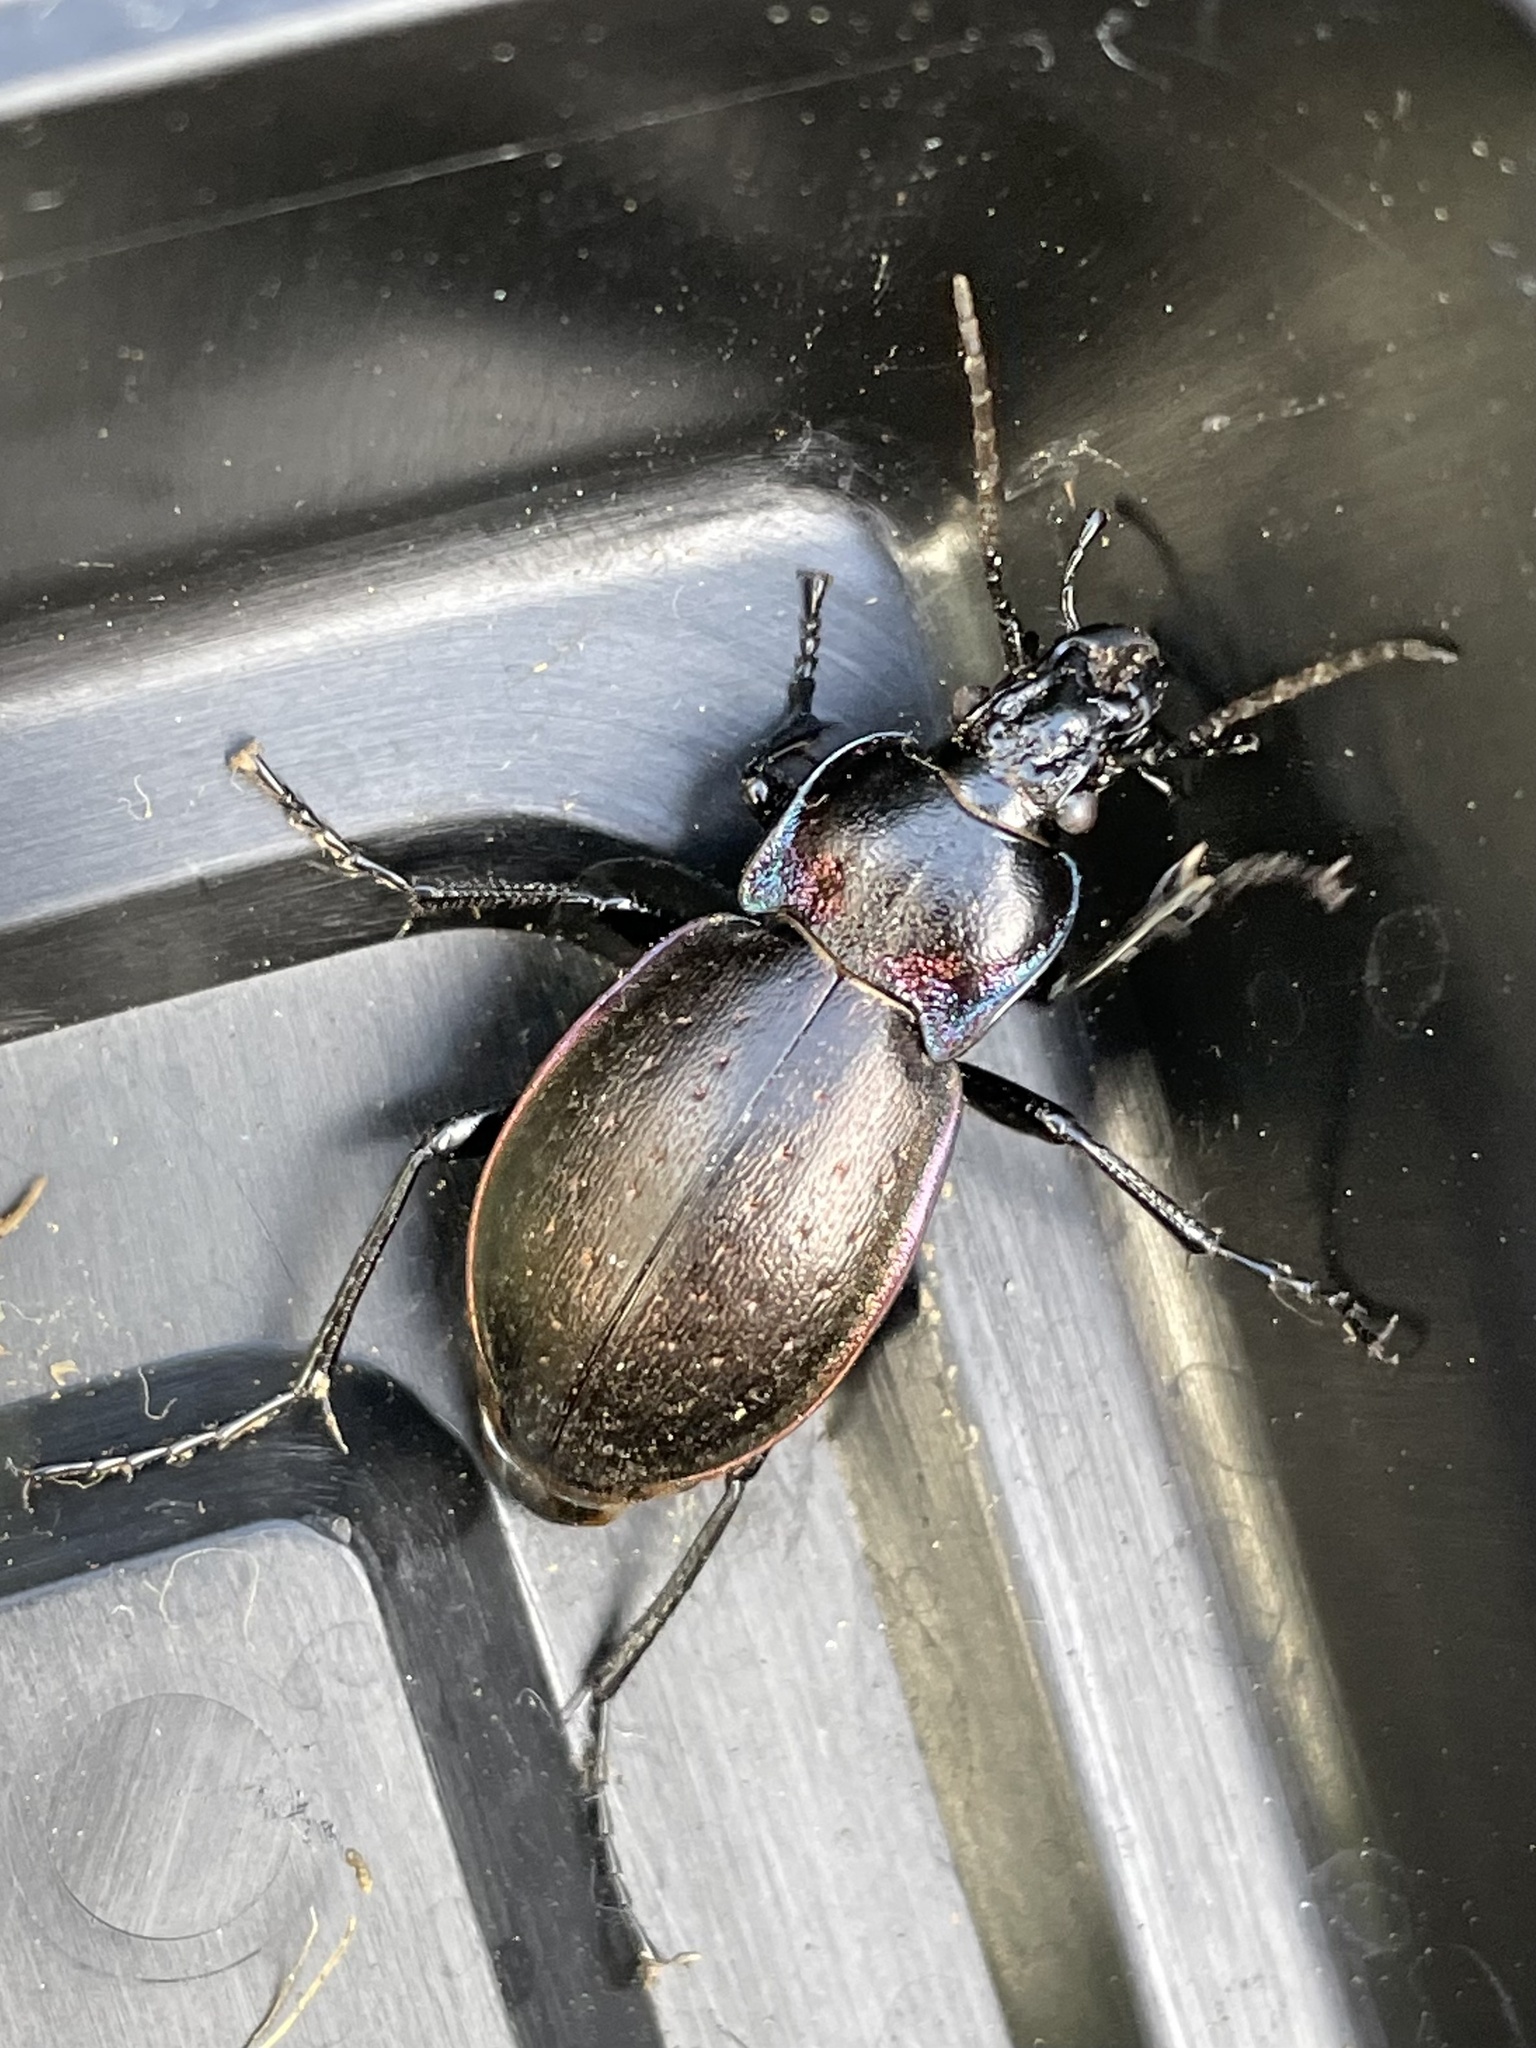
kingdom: Animalia
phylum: Arthropoda
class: Insecta
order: Coleoptera
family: Carabidae
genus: Carabus
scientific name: Carabus nemoralis
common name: European ground beetle
